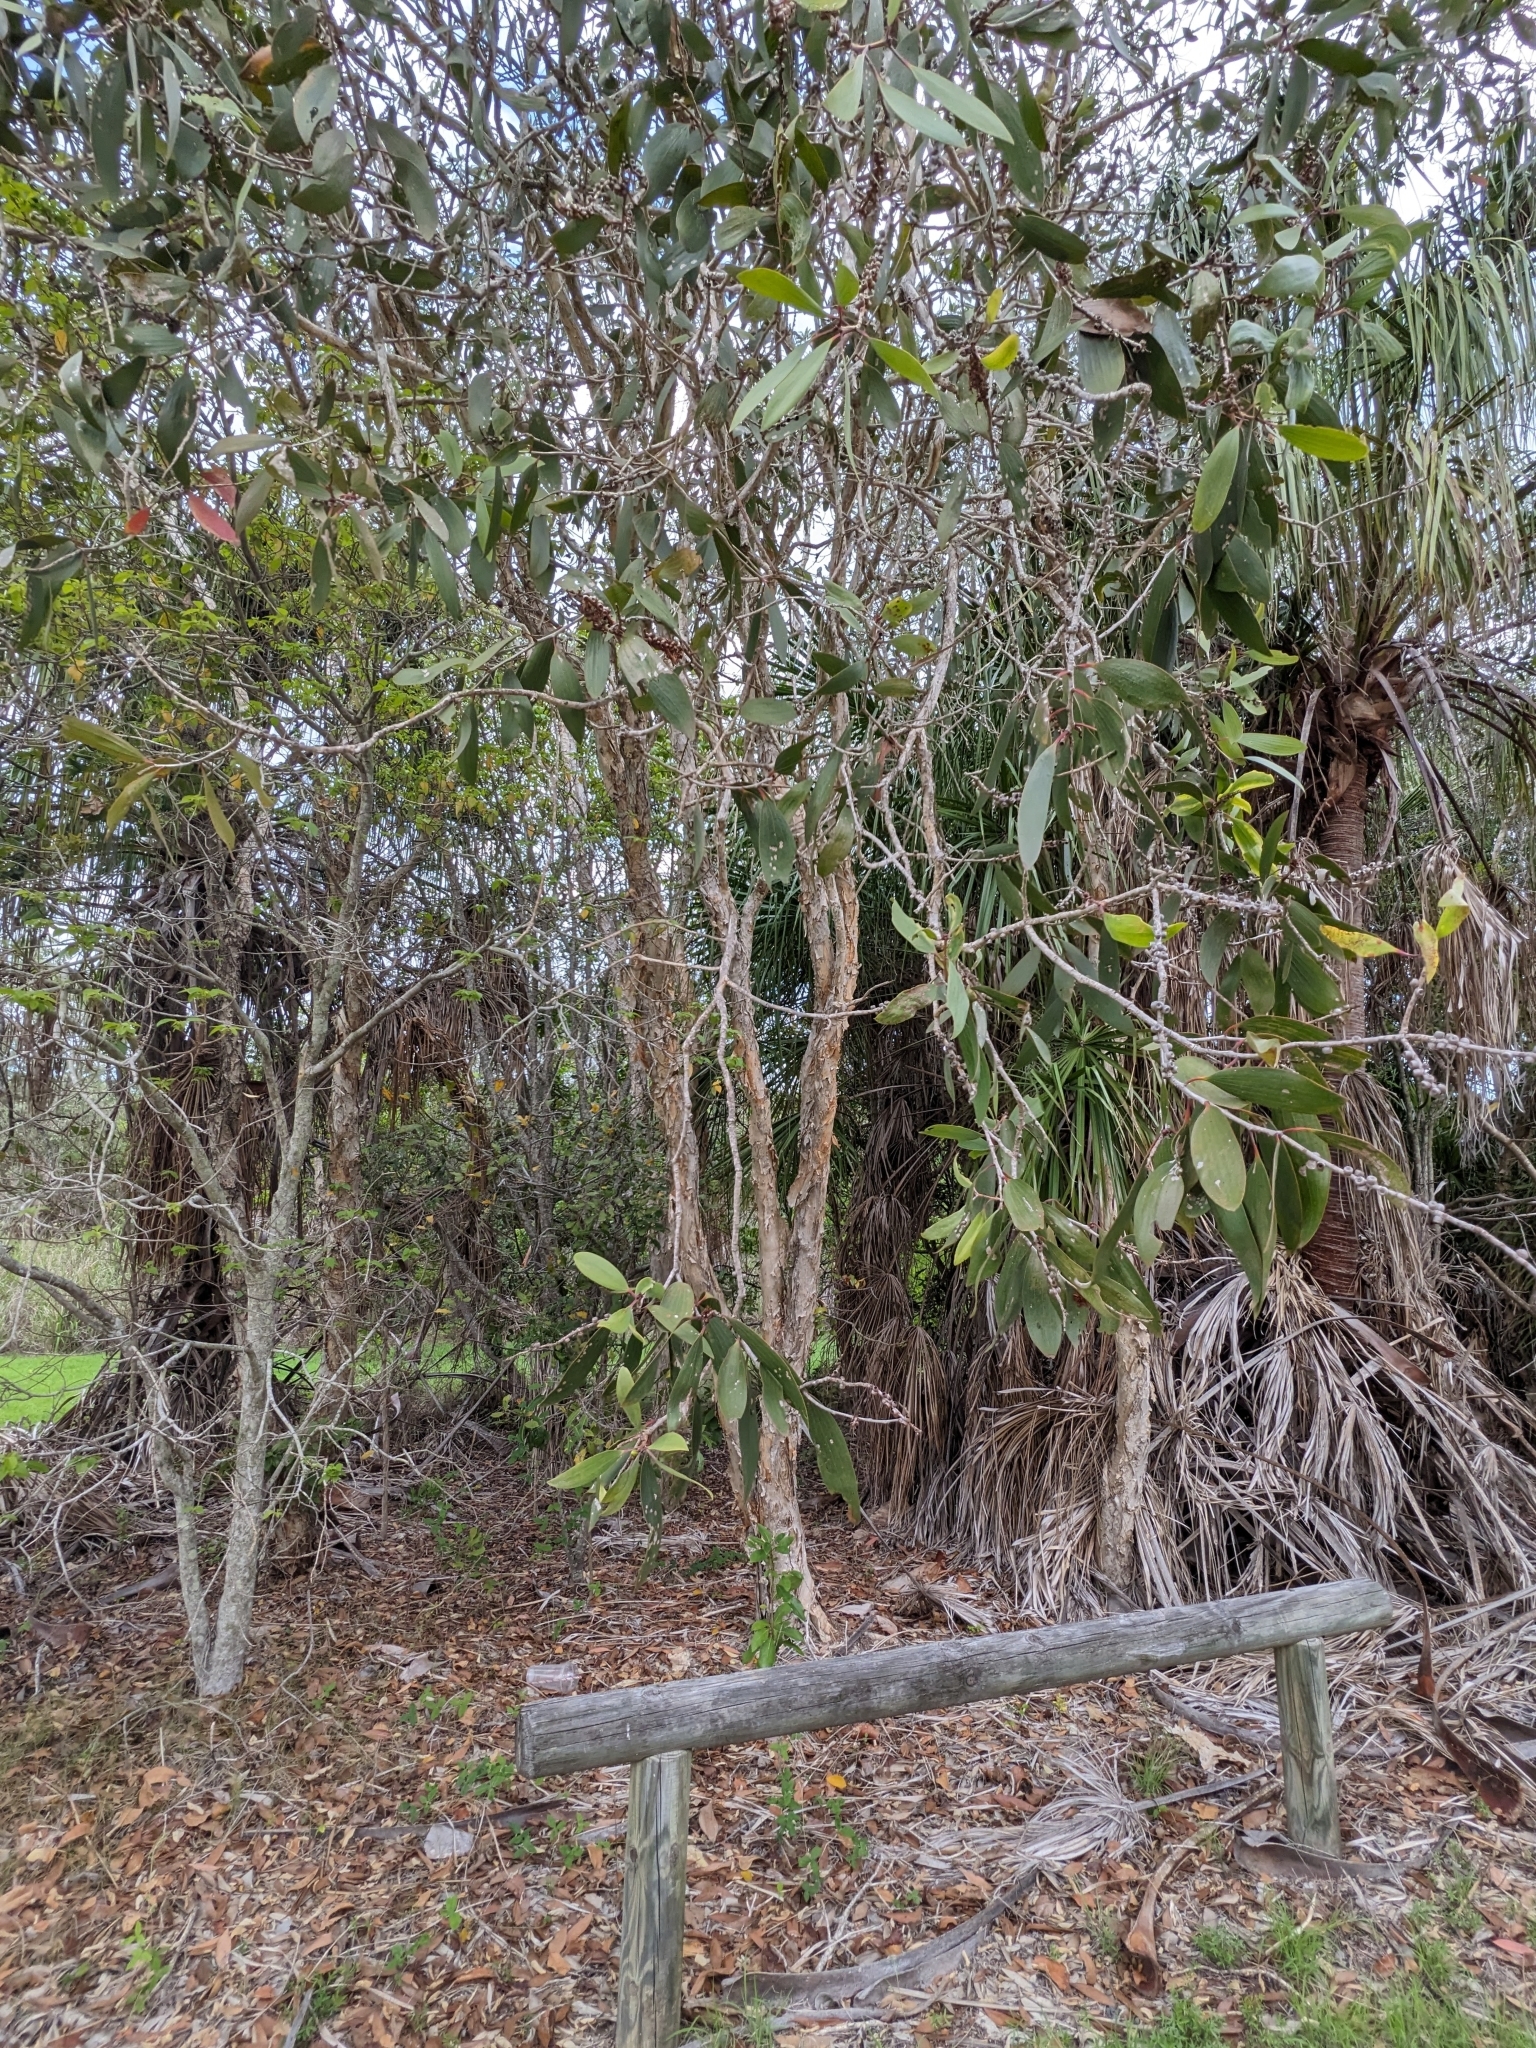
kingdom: Animalia
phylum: Arthropoda
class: Insecta
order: Hemiptera
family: Beesoniidae
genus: Beesonia
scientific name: Beesonia ferrugineus
